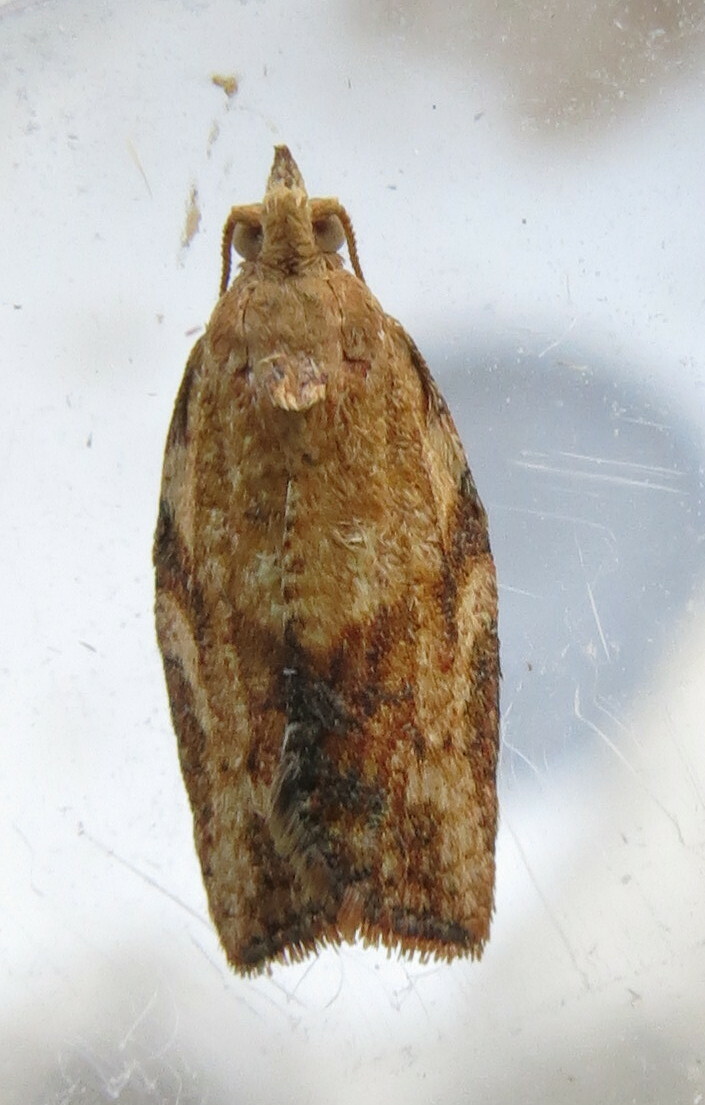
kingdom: Animalia
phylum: Arthropoda
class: Insecta
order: Lepidoptera
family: Tortricidae
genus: Epiphyas
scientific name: Epiphyas postvittana
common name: Light brown apple moth
